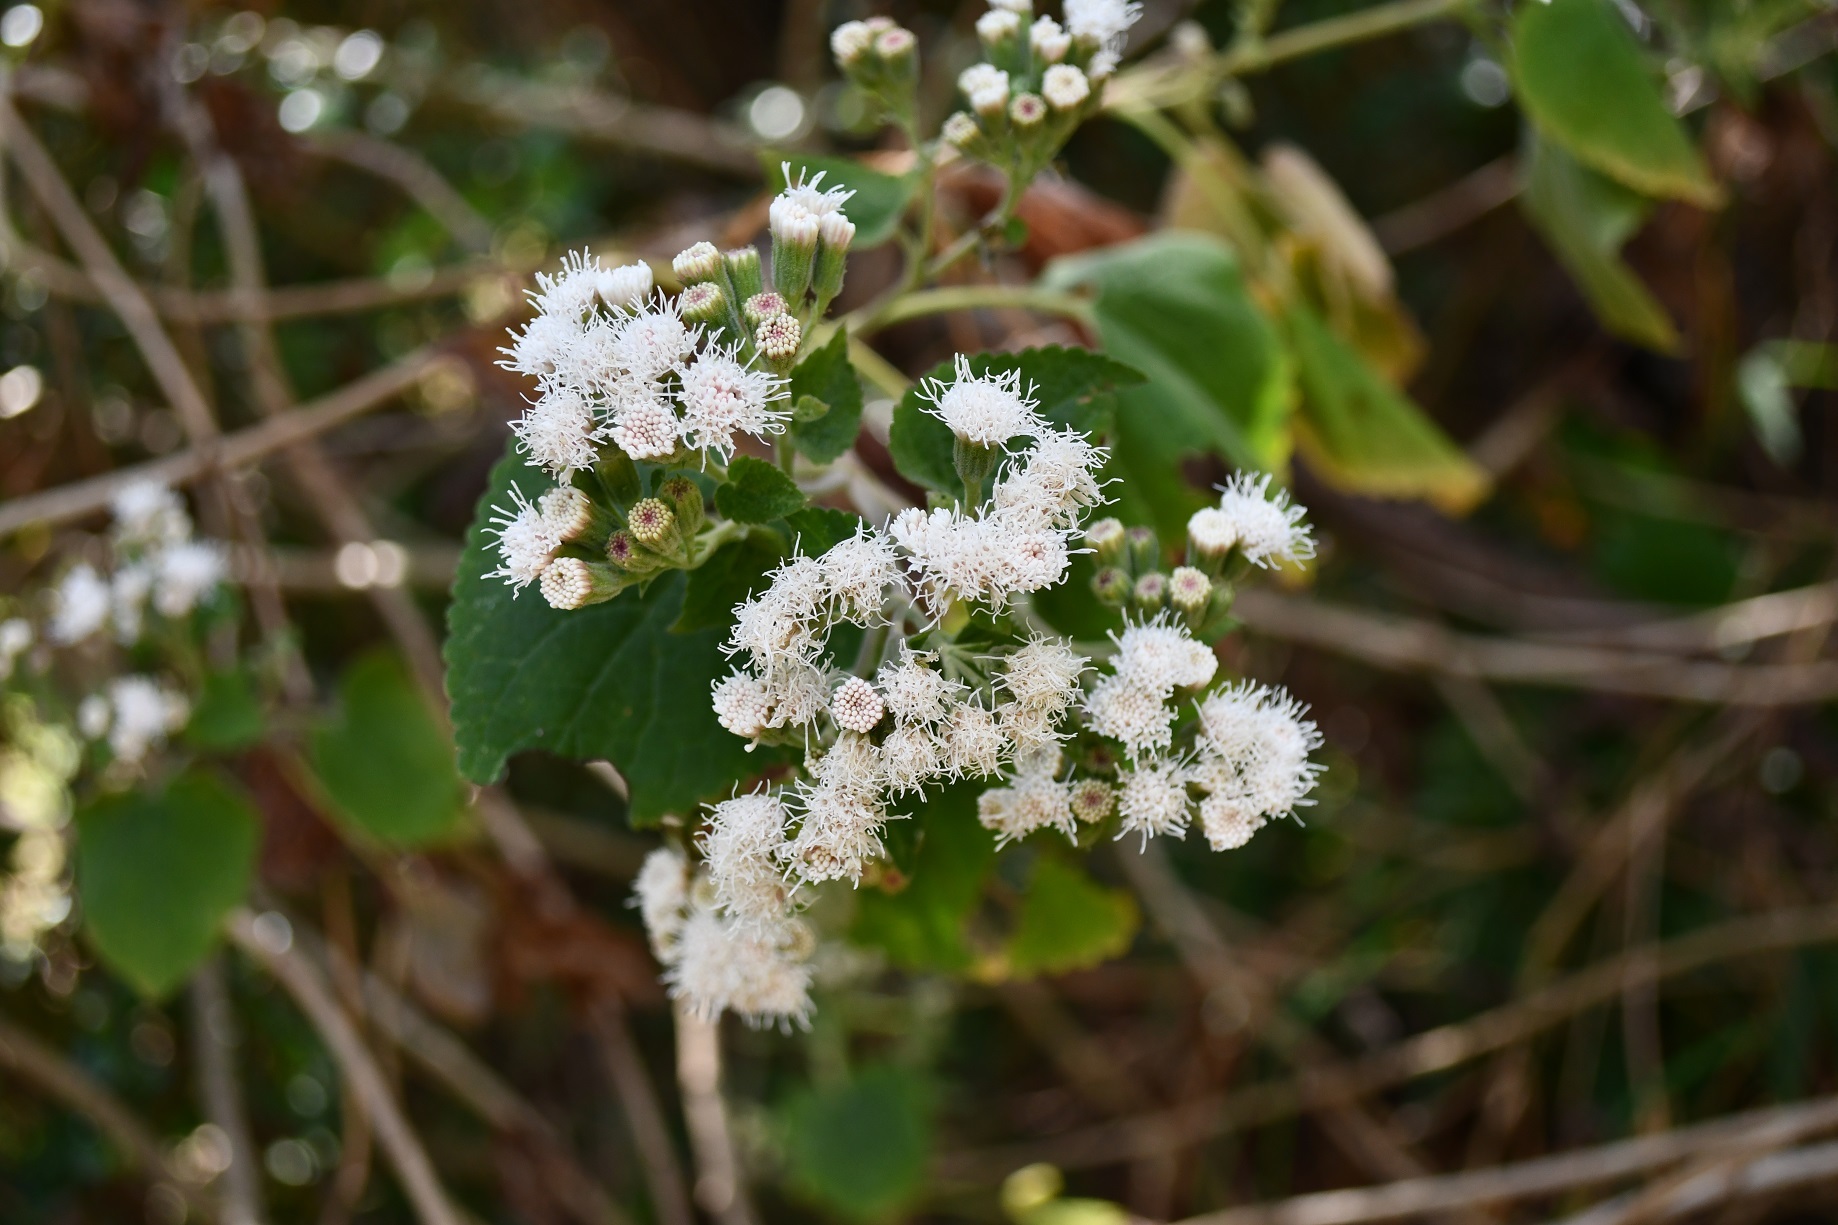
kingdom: Plantae
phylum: Tracheophyta
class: Magnoliopsida
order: Asterales
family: Asteraceae
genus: Ageratina
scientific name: Ageratina petiolaris
